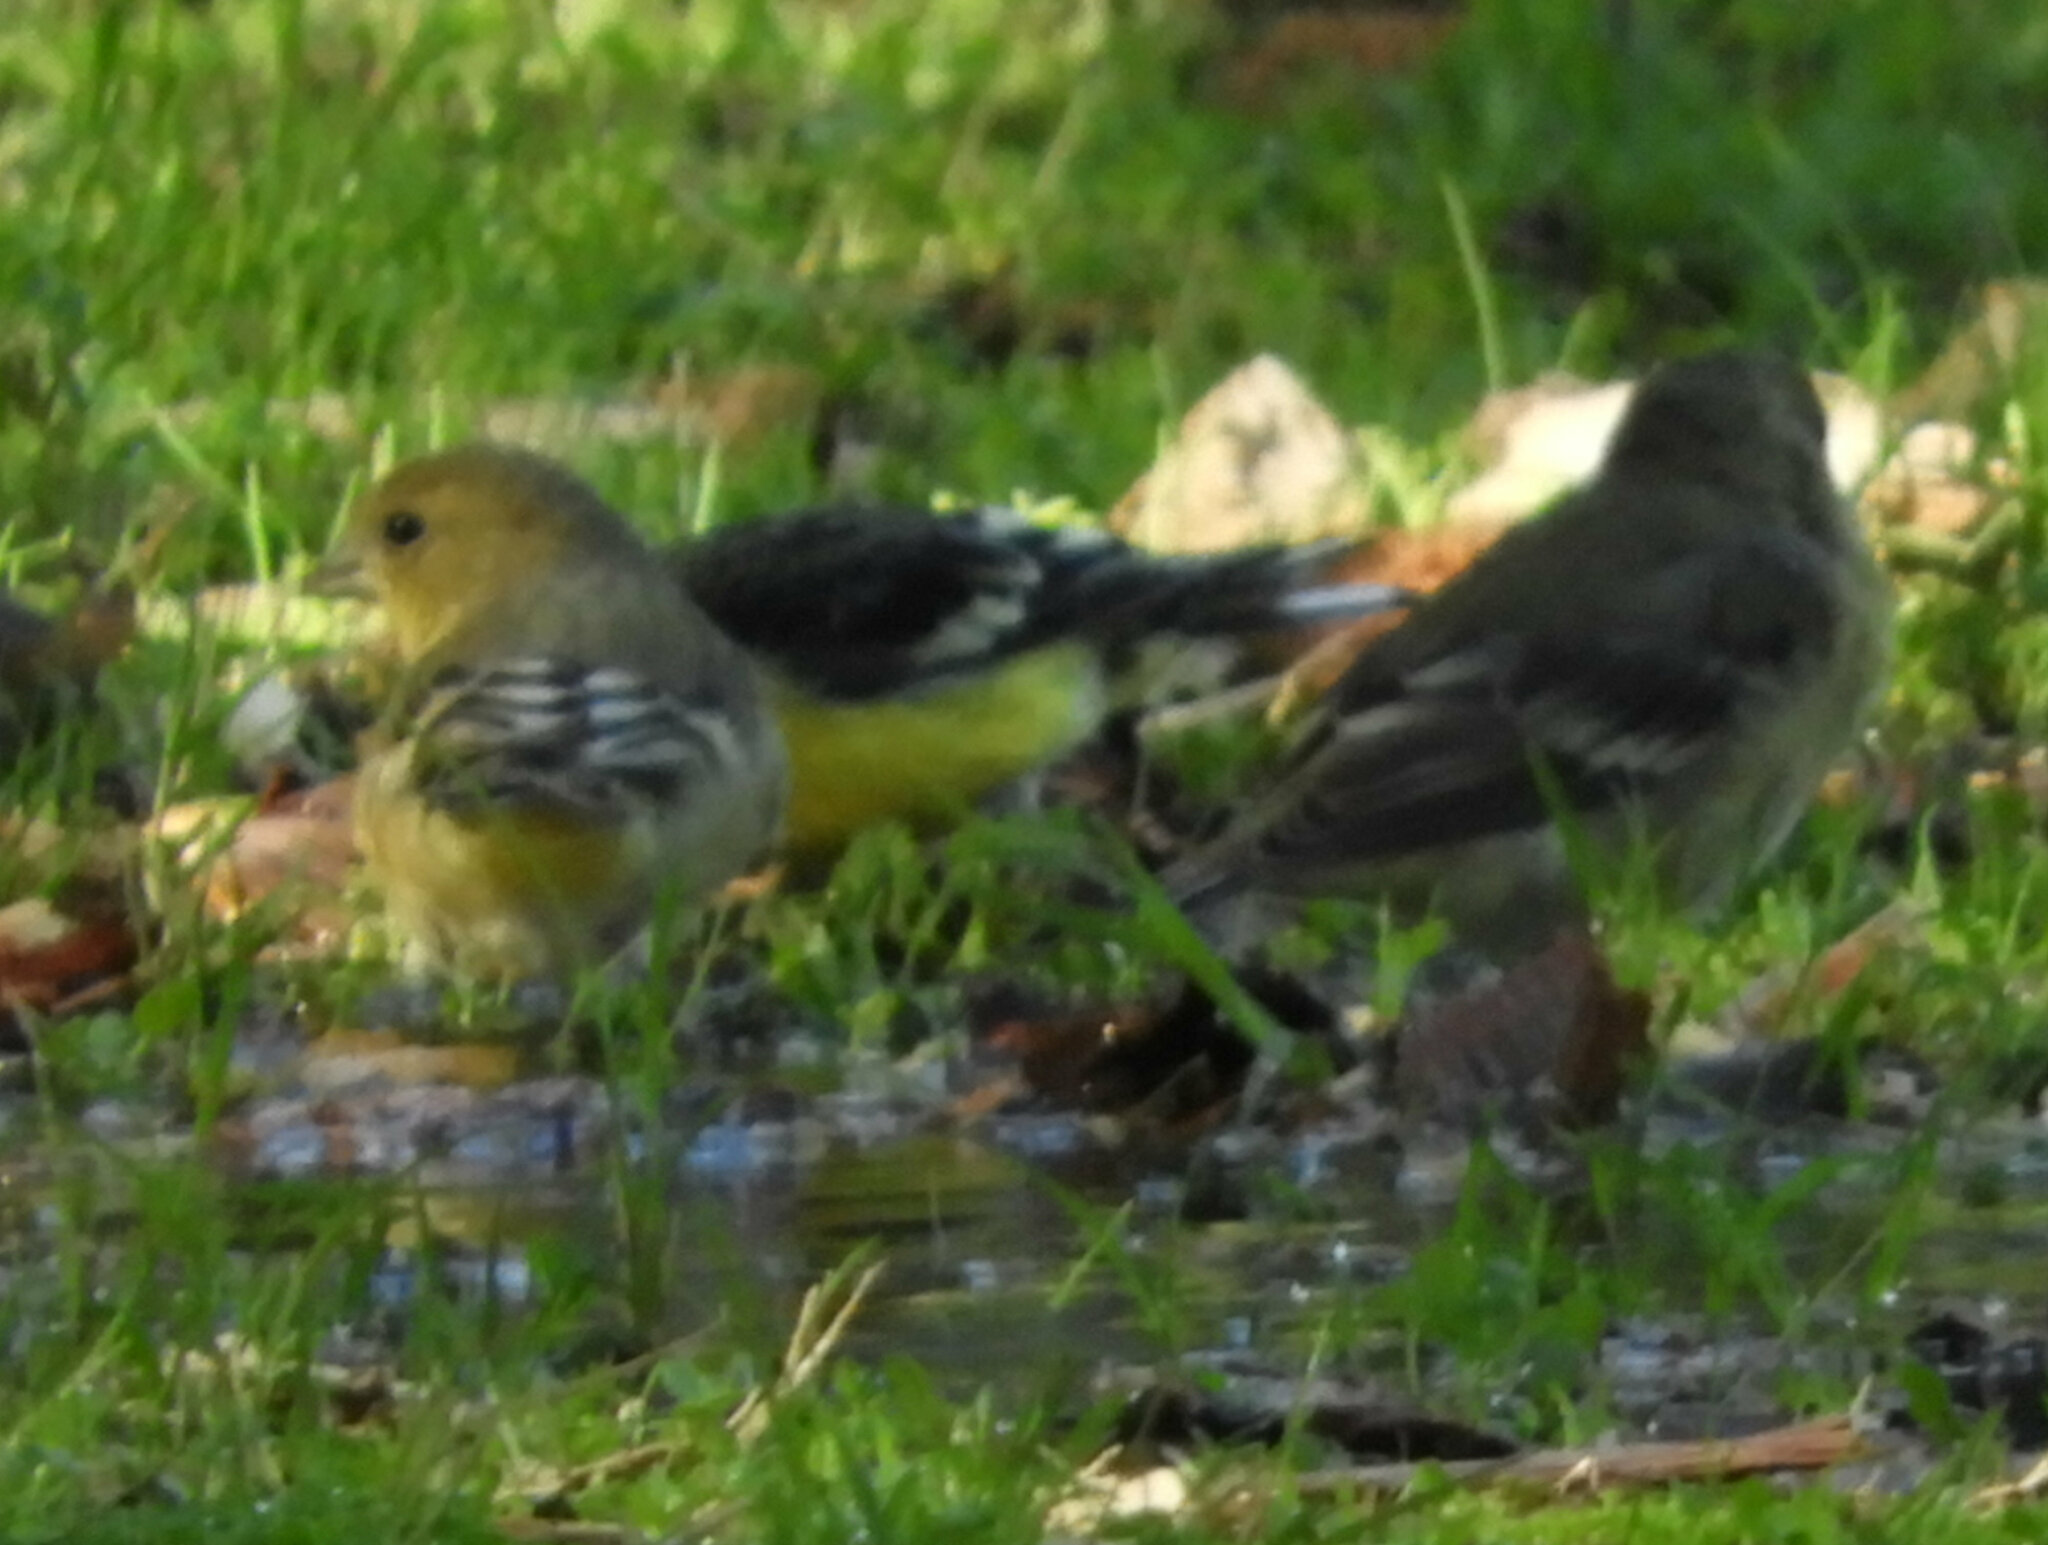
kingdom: Animalia
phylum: Chordata
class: Aves
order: Passeriformes
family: Fringillidae
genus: Spinus
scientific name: Spinus psaltria
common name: Lesser goldfinch
